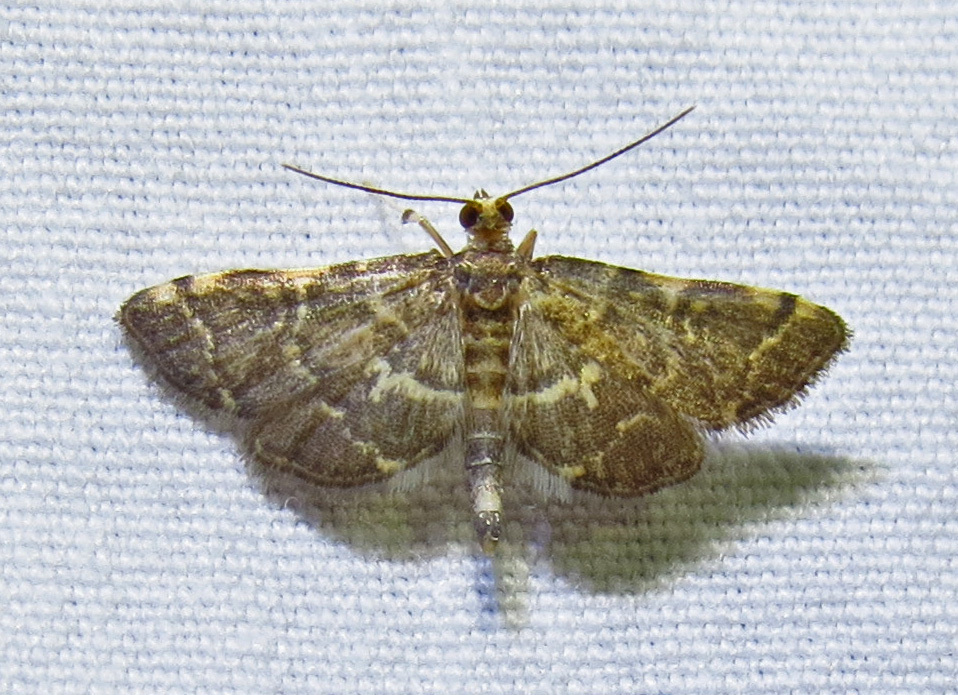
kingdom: Animalia
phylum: Arthropoda
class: Insecta
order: Lepidoptera
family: Crambidae
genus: Anageshna
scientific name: Anageshna primordialis
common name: Yellow-spotted webworm moth
